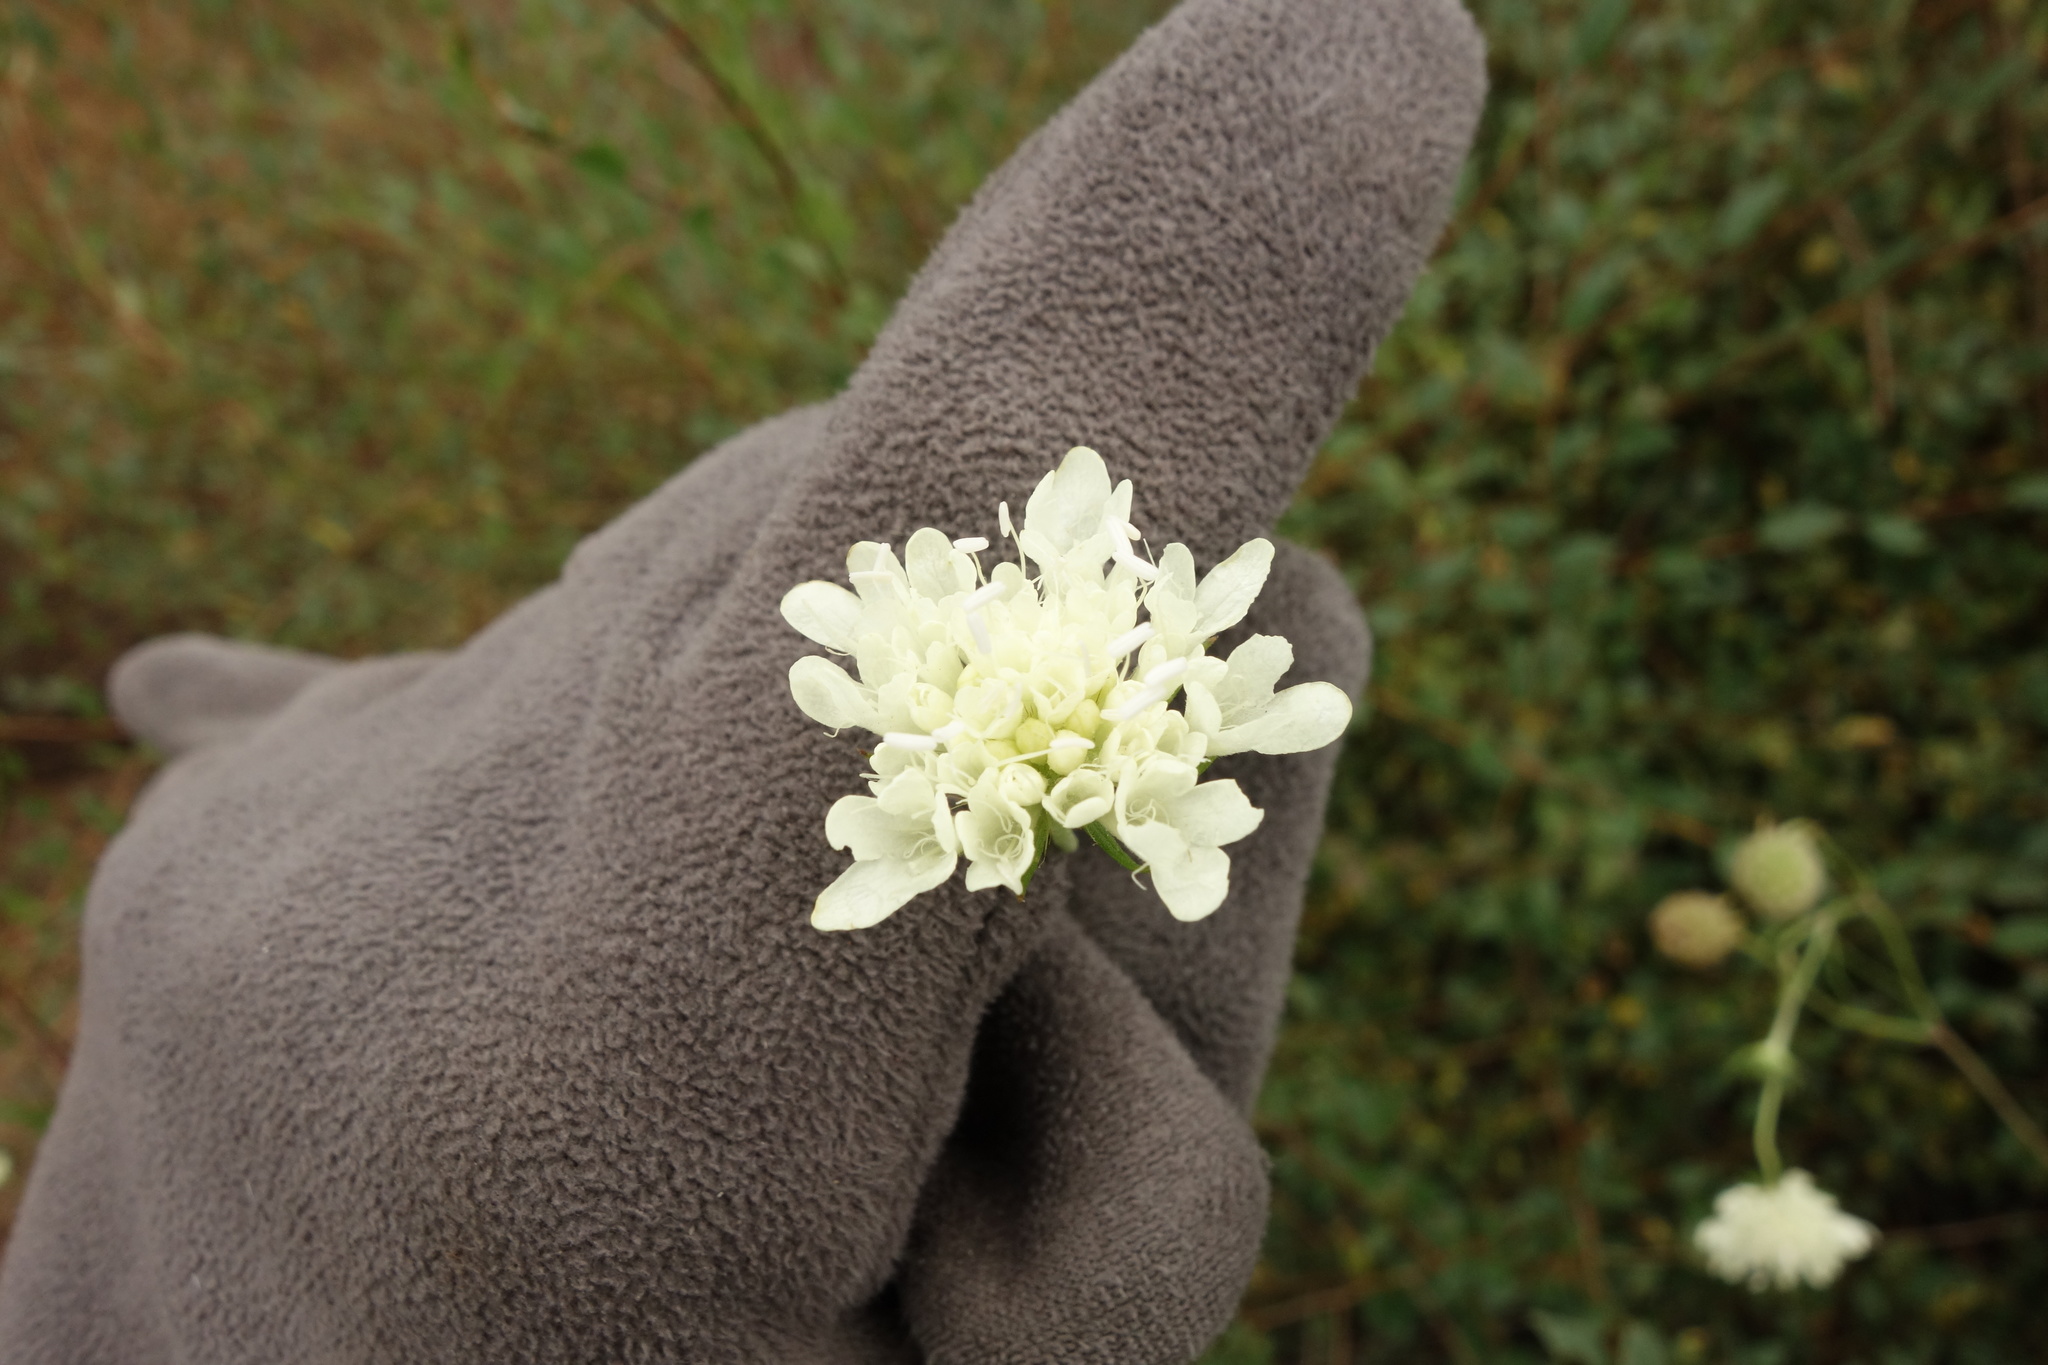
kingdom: Plantae
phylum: Tracheophyta
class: Magnoliopsida
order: Dipsacales
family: Caprifoliaceae
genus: Scabiosa
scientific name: Scabiosa ochroleuca
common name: Cream pincushions
